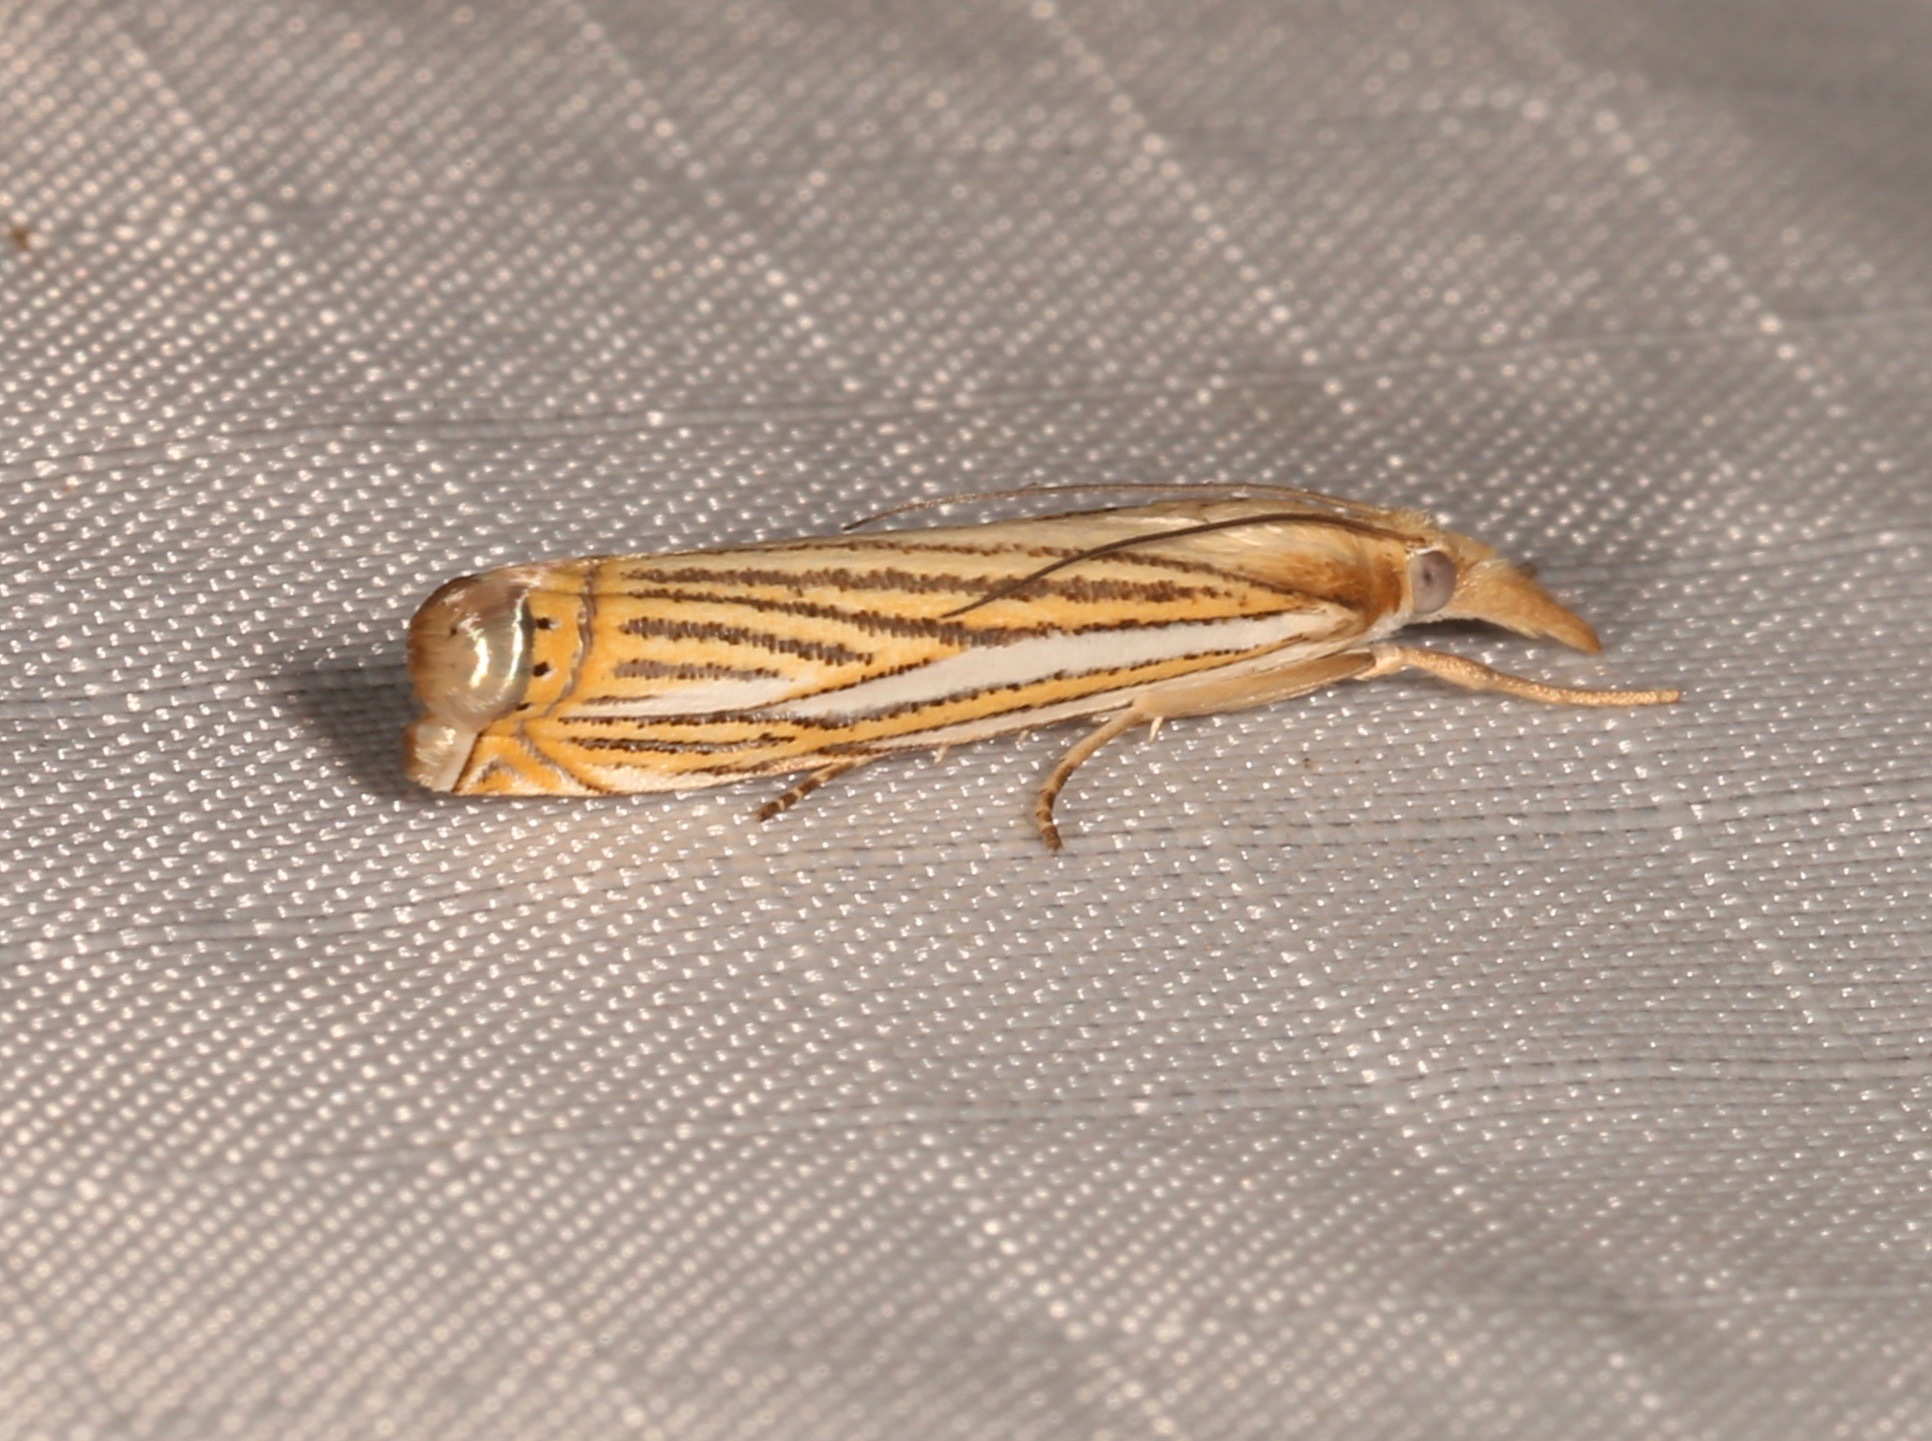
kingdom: Animalia
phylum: Arthropoda
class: Insecta
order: Lepidoptera
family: Crambidae
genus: Crambus
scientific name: Crambus multilinellus
